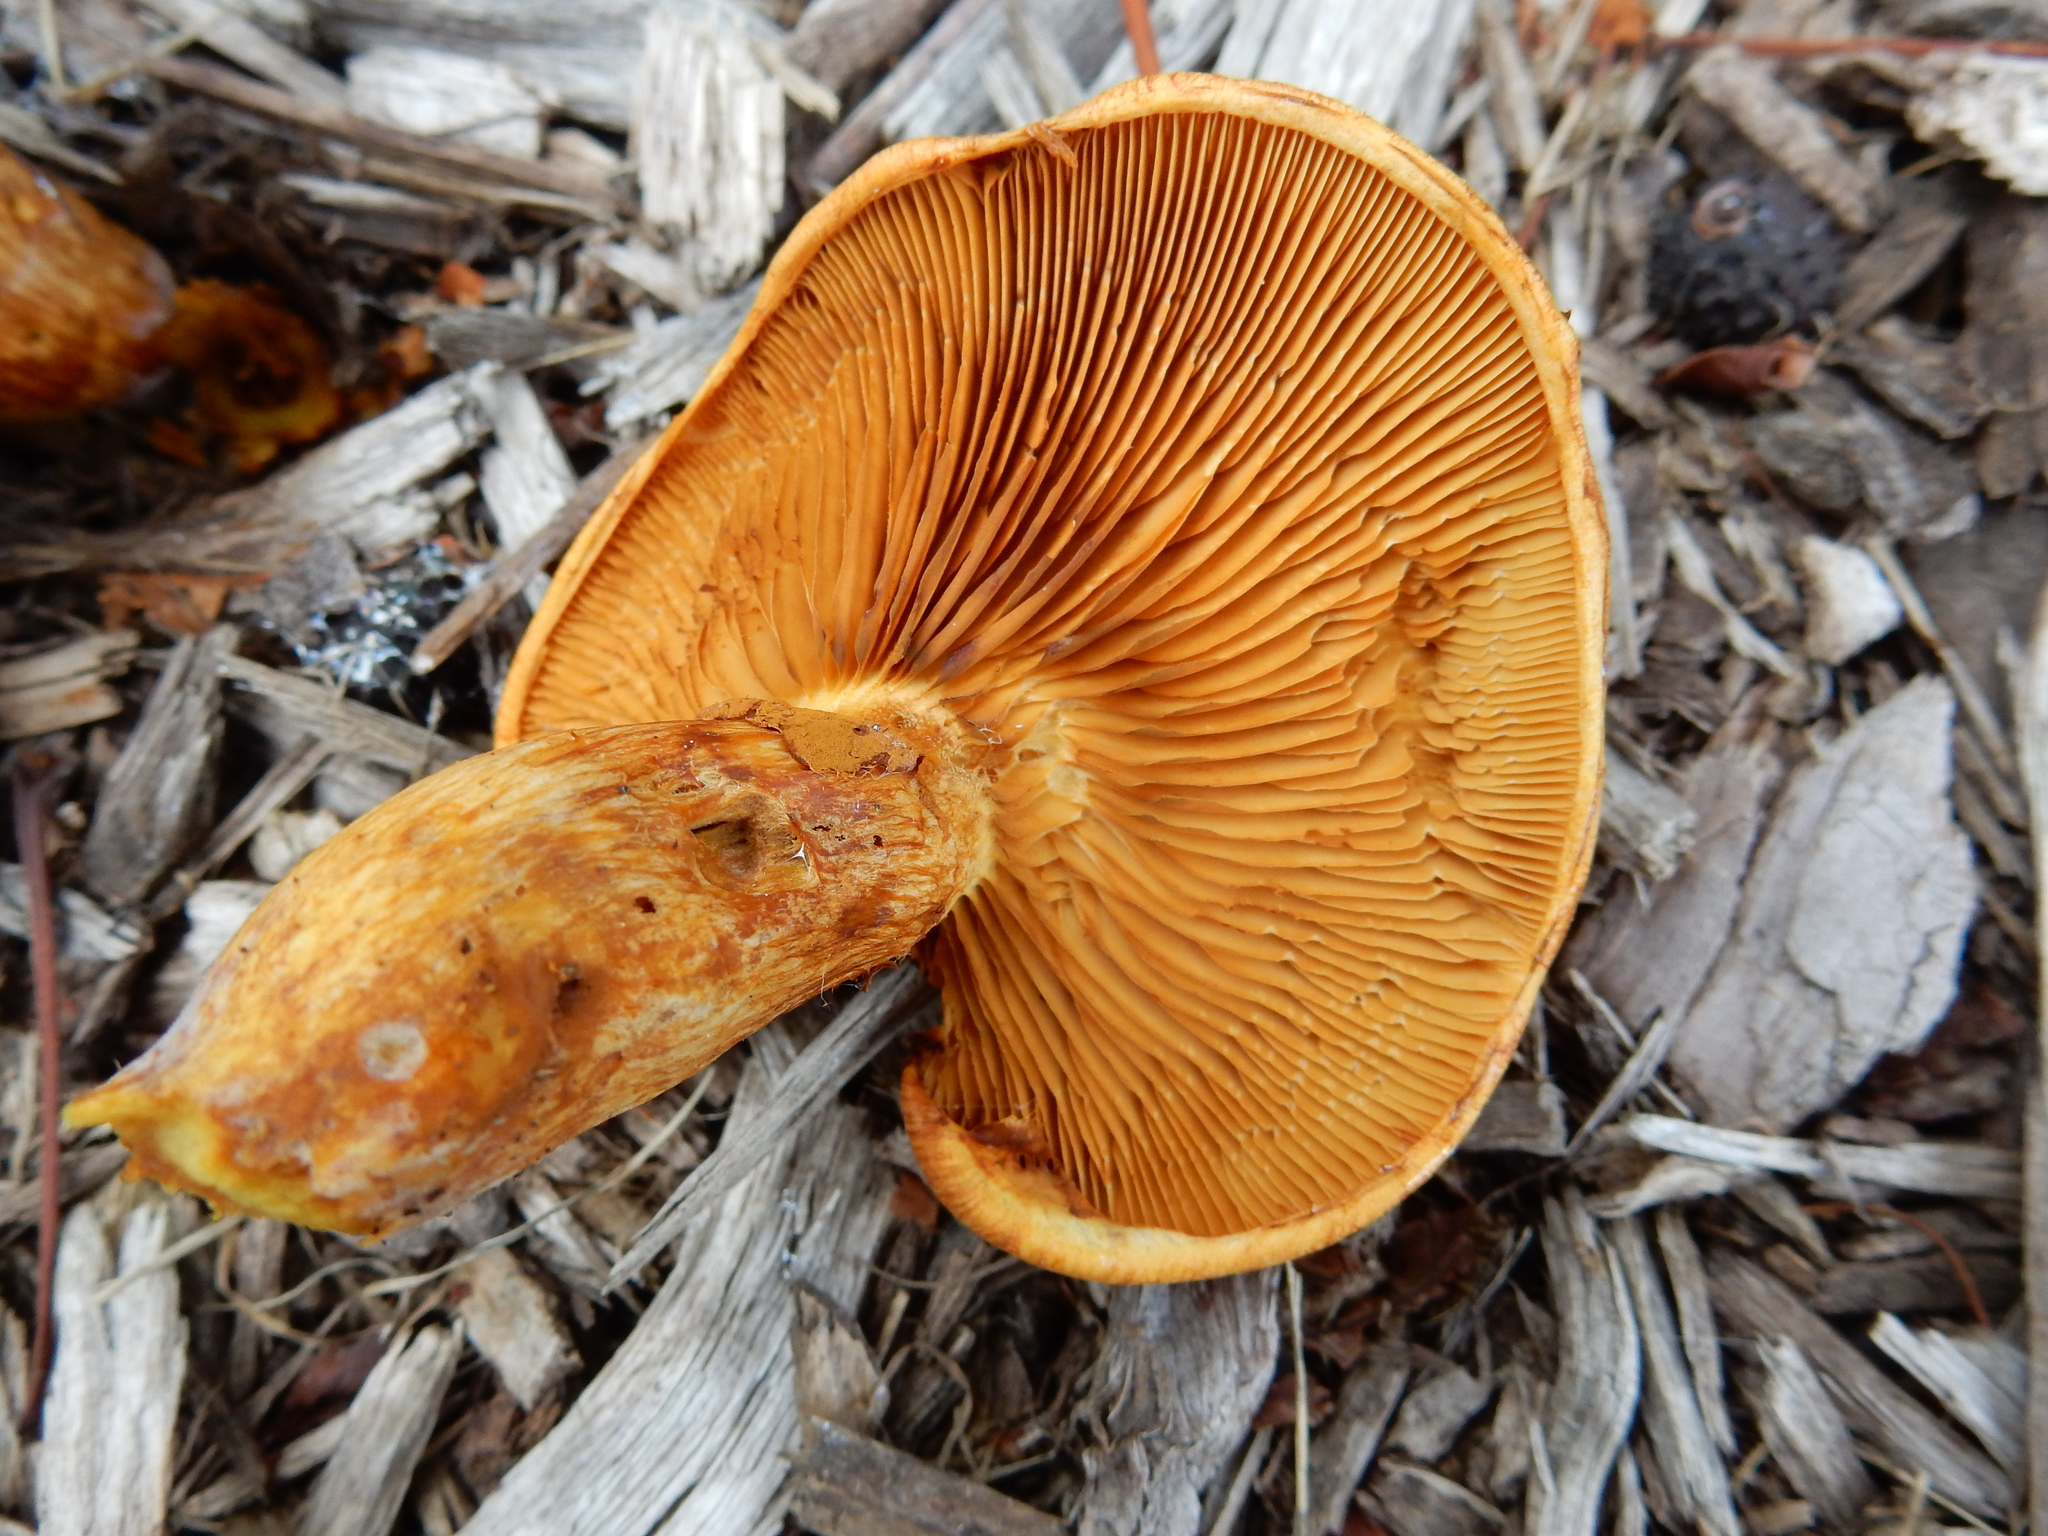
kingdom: Fungi
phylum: Basidiomycota
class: Agaricomycetes
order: Agaricales
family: Hymenogastraceae
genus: Gymnopilus
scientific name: Gymnopilus junonius
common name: Spectacular rustgill
